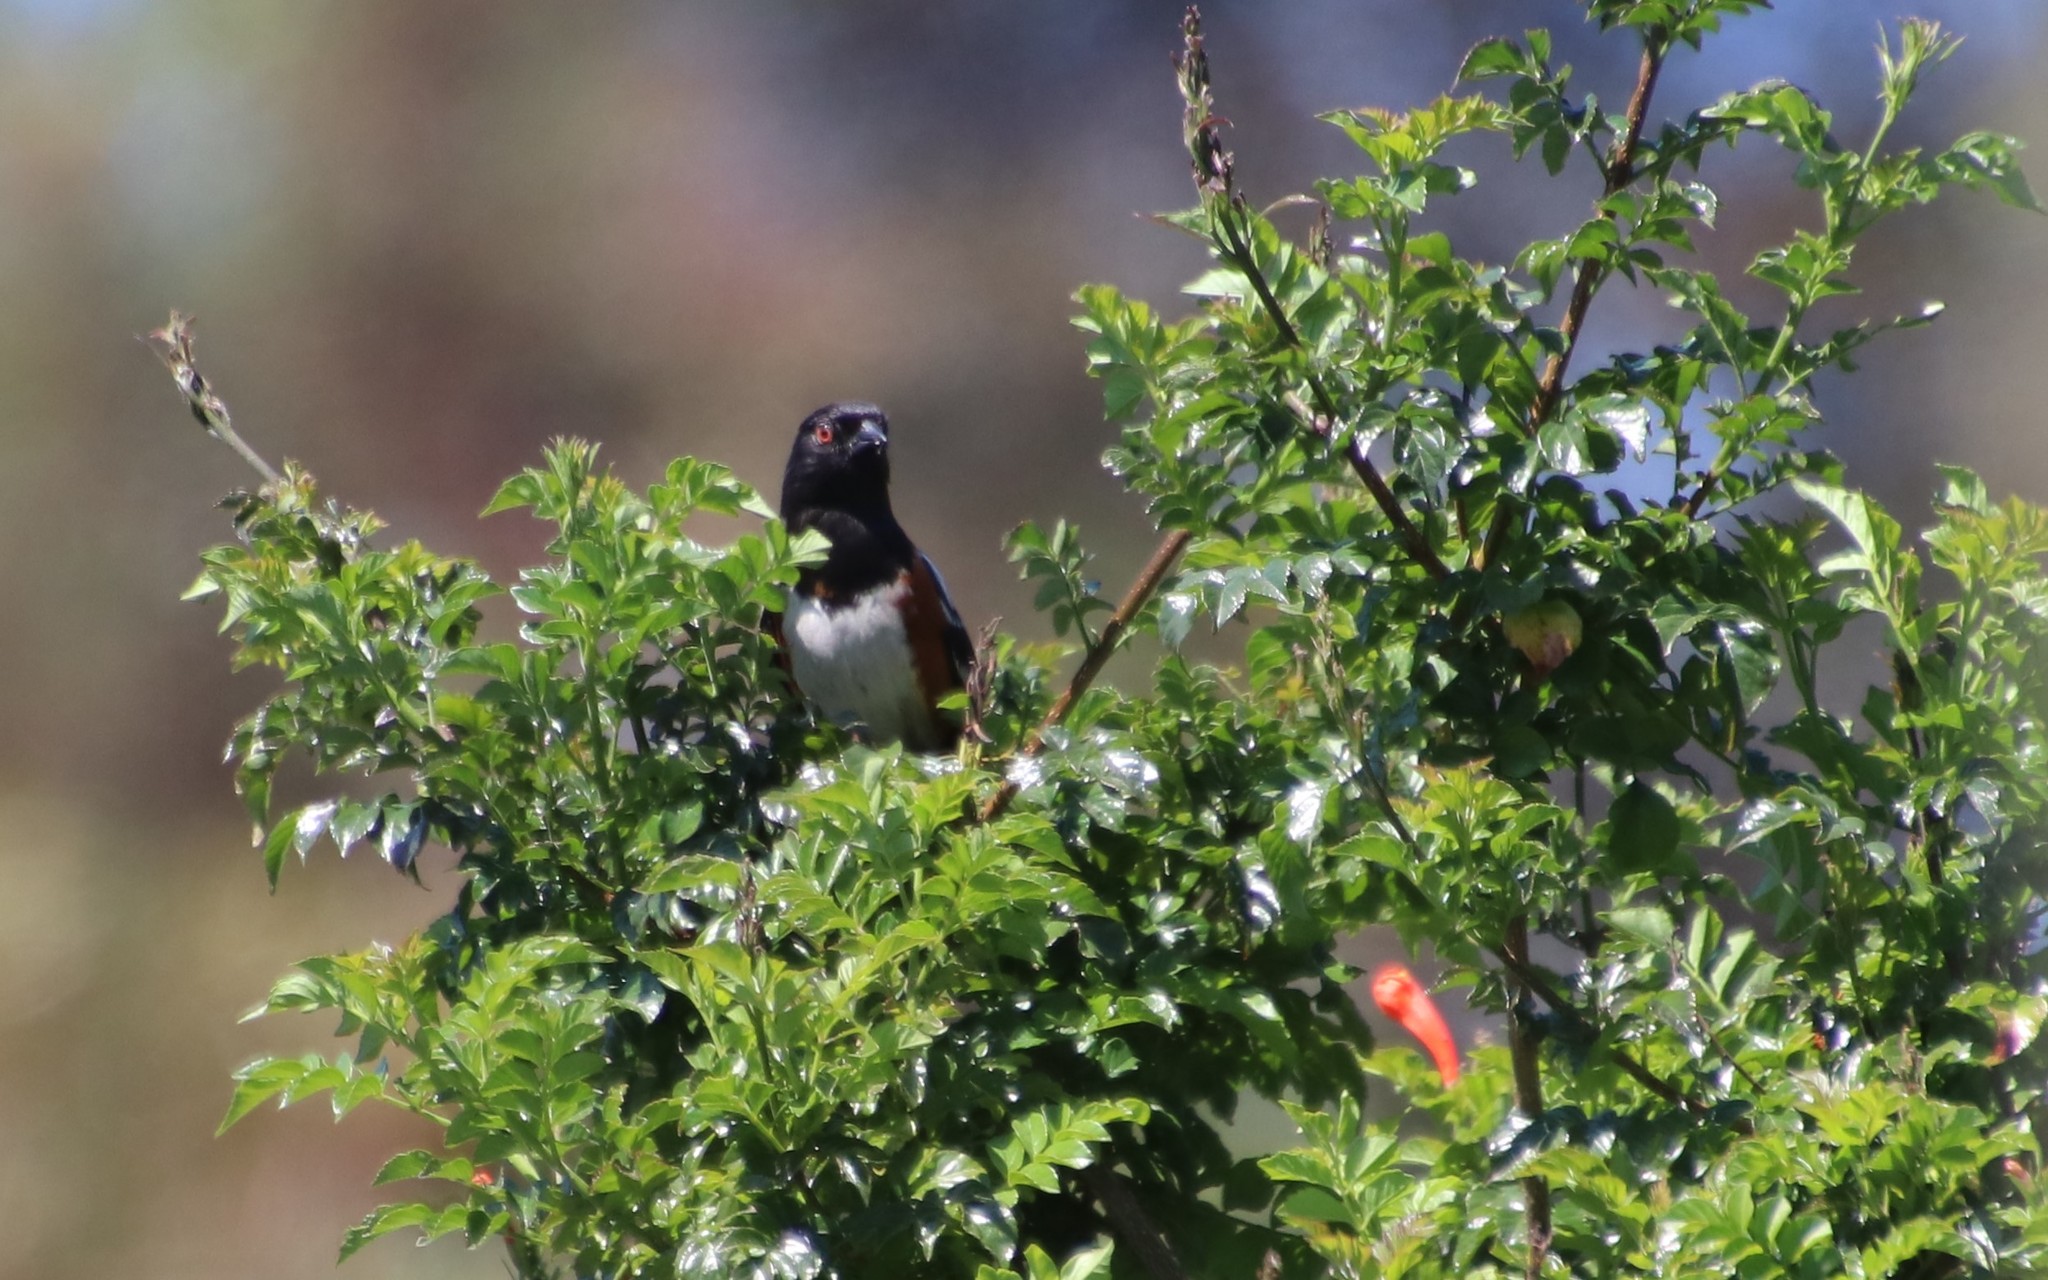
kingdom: Animalia
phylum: Chordata
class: Aves
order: Passeriformes
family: Passerellidae
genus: Pipilo
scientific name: Pipilo maculatus
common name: Spotted towhee
